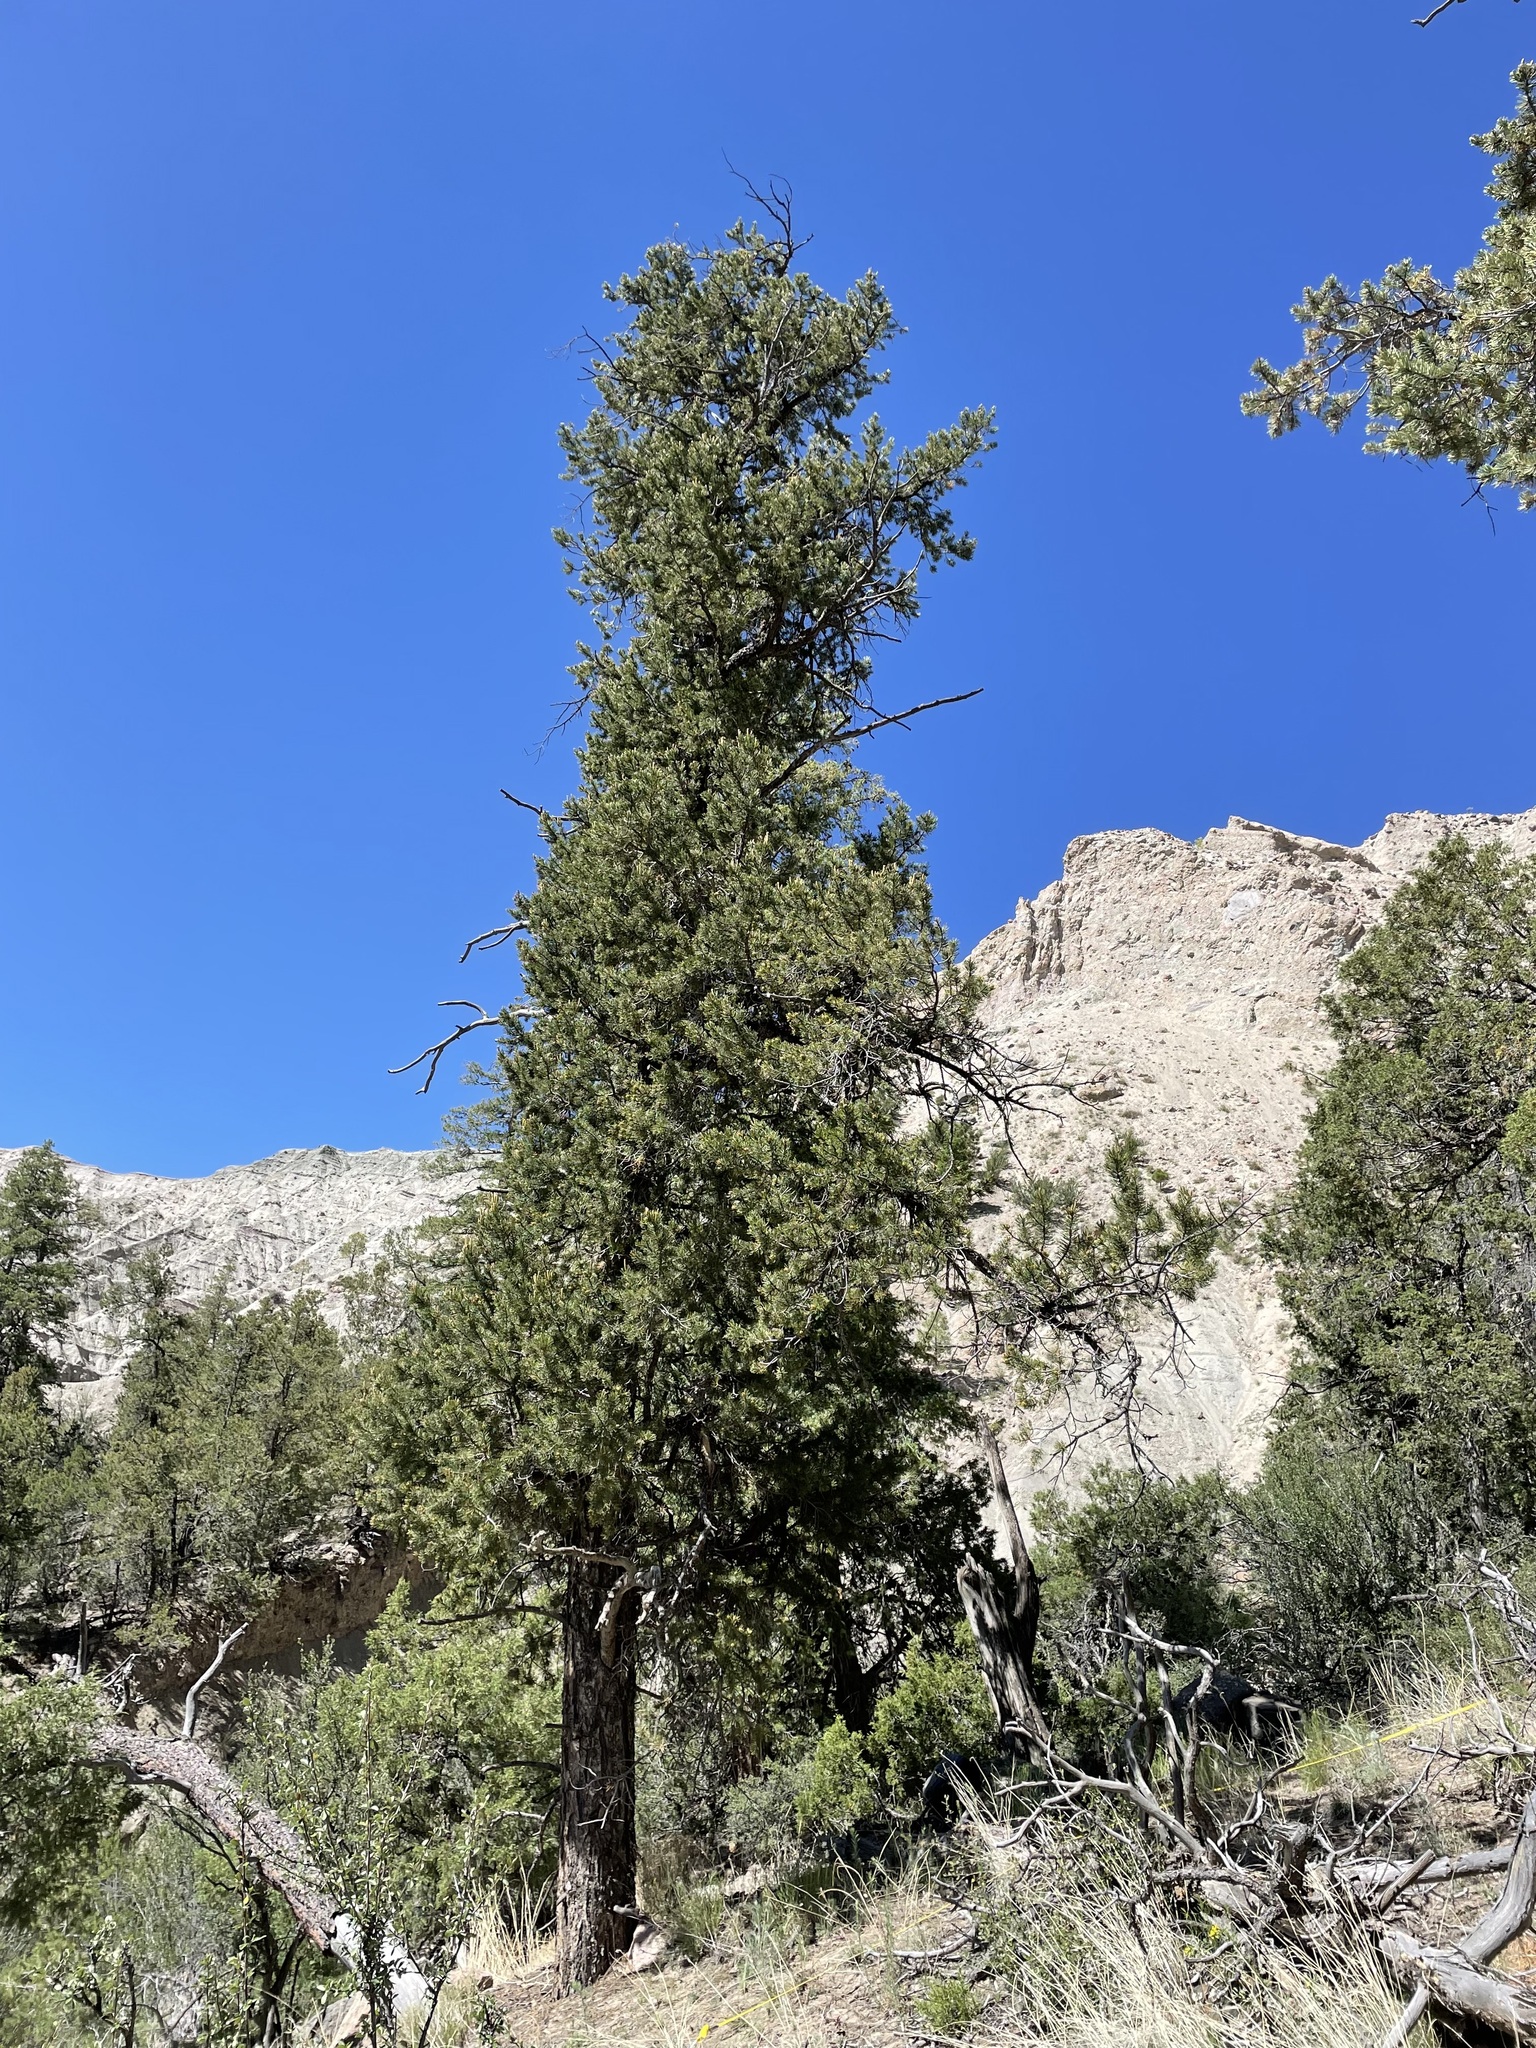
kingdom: Plantae
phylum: Tracheophyta
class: Pinopsida
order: Pinales
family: Pinaceae
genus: Pinus
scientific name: Pinus edulis
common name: Colorado pinyon
